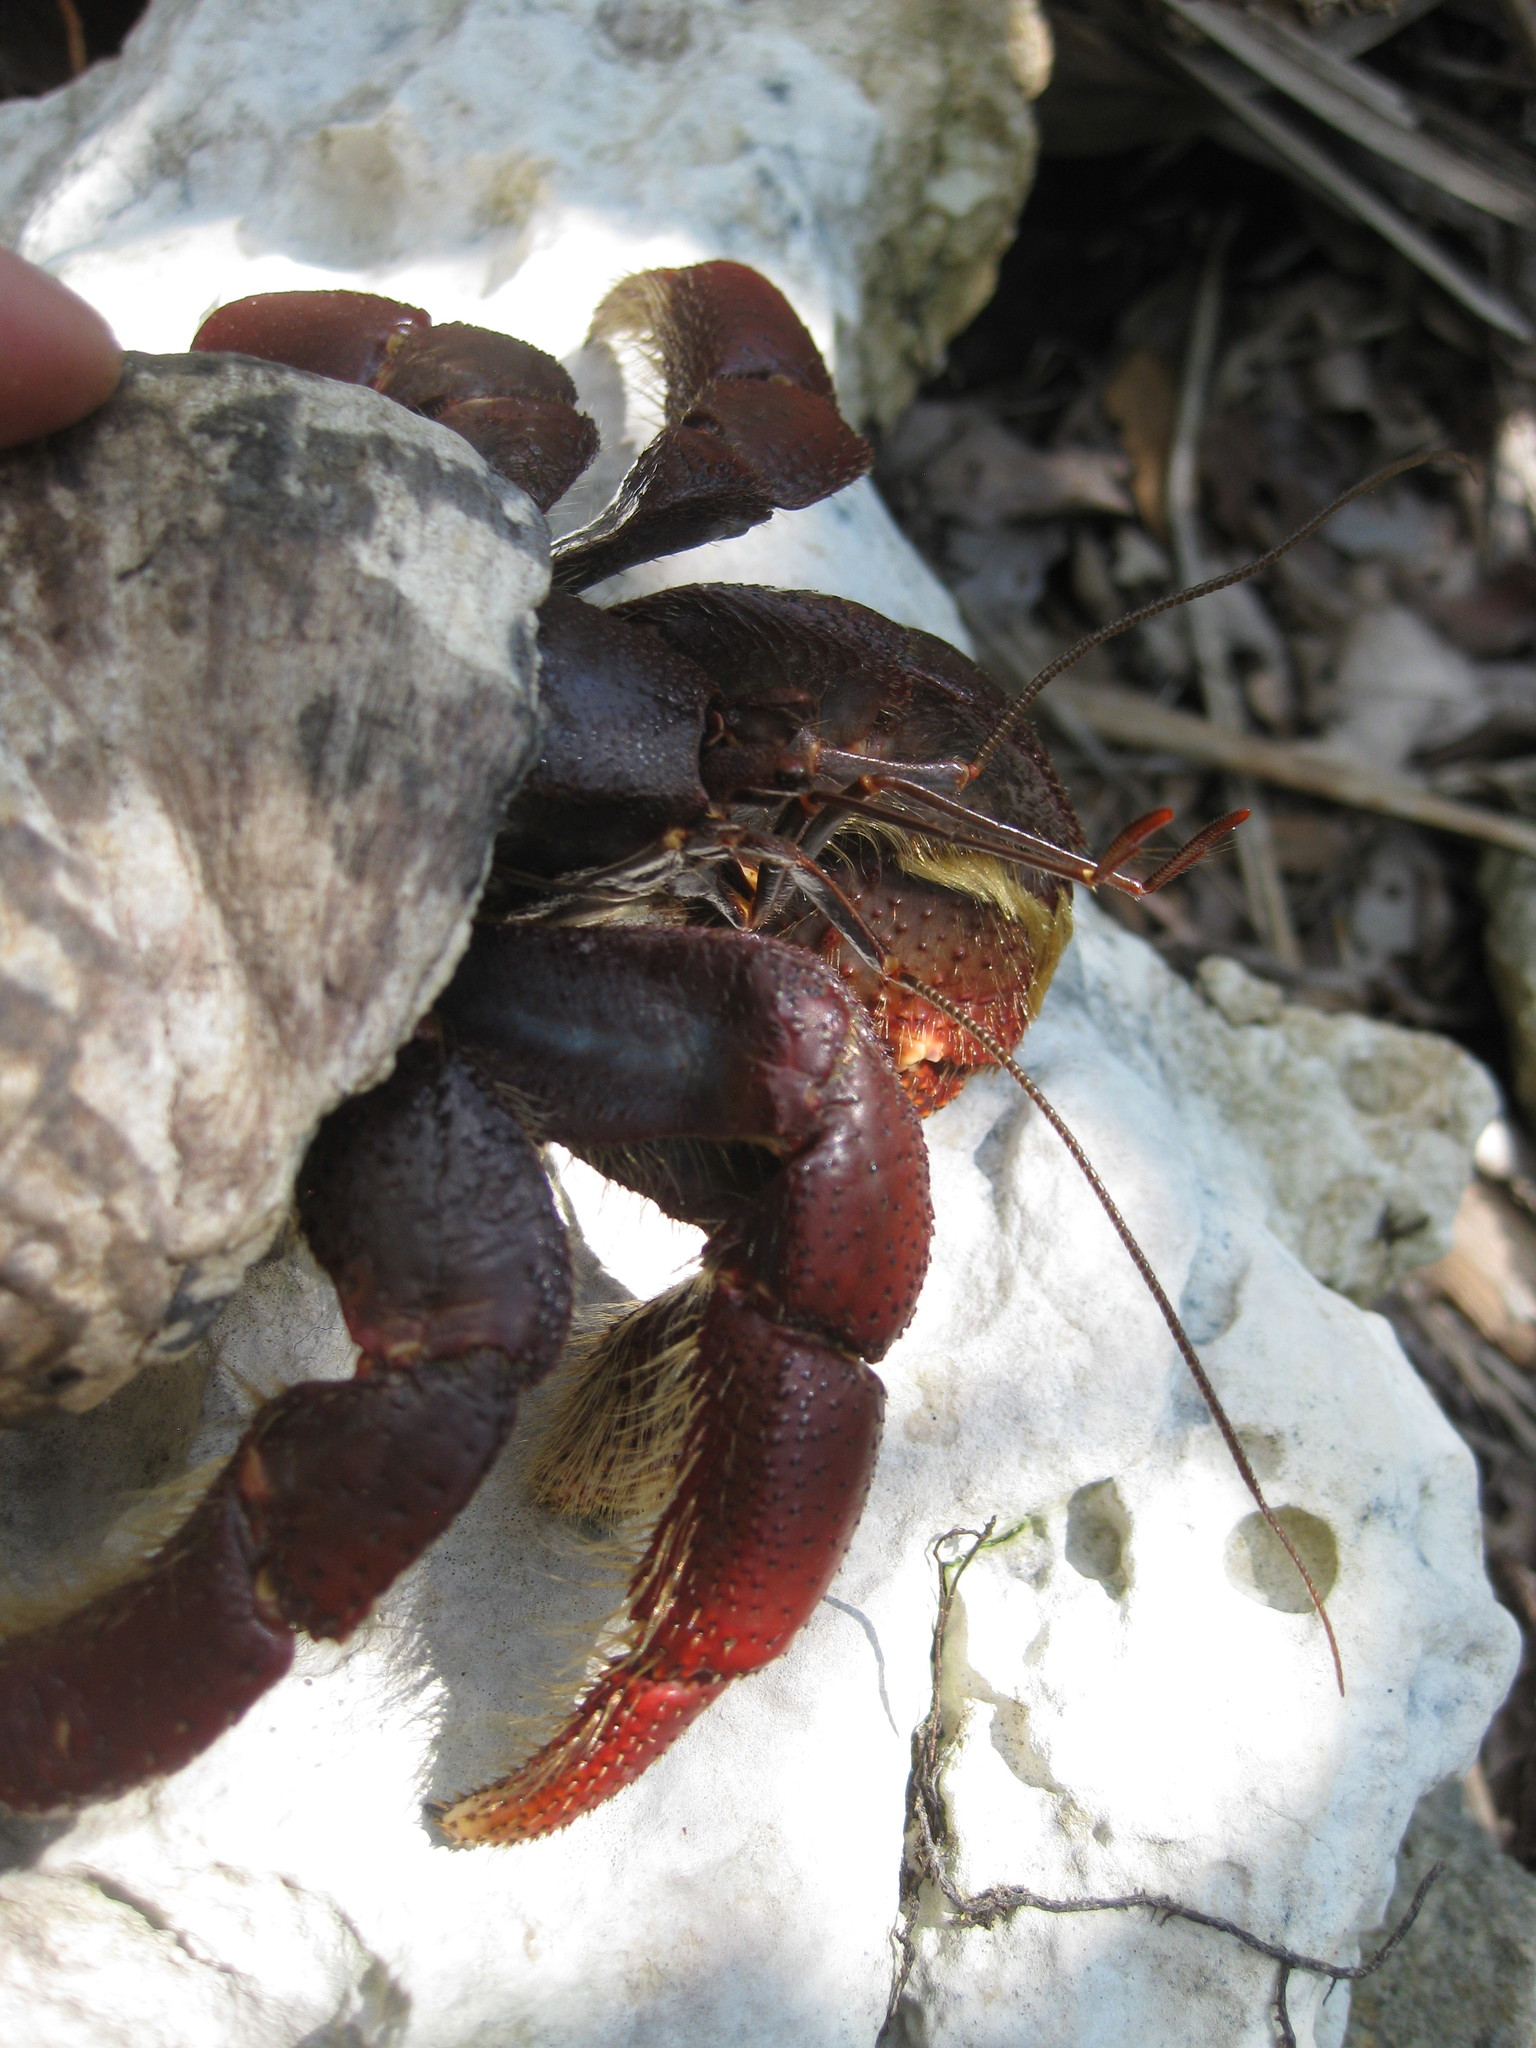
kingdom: Animalia
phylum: Arthropoda
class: Malacostraca
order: Decapoda
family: Coenobitidae
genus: Coenobita
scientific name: Coenobita clypeatus
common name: Caribbean hermit crab
